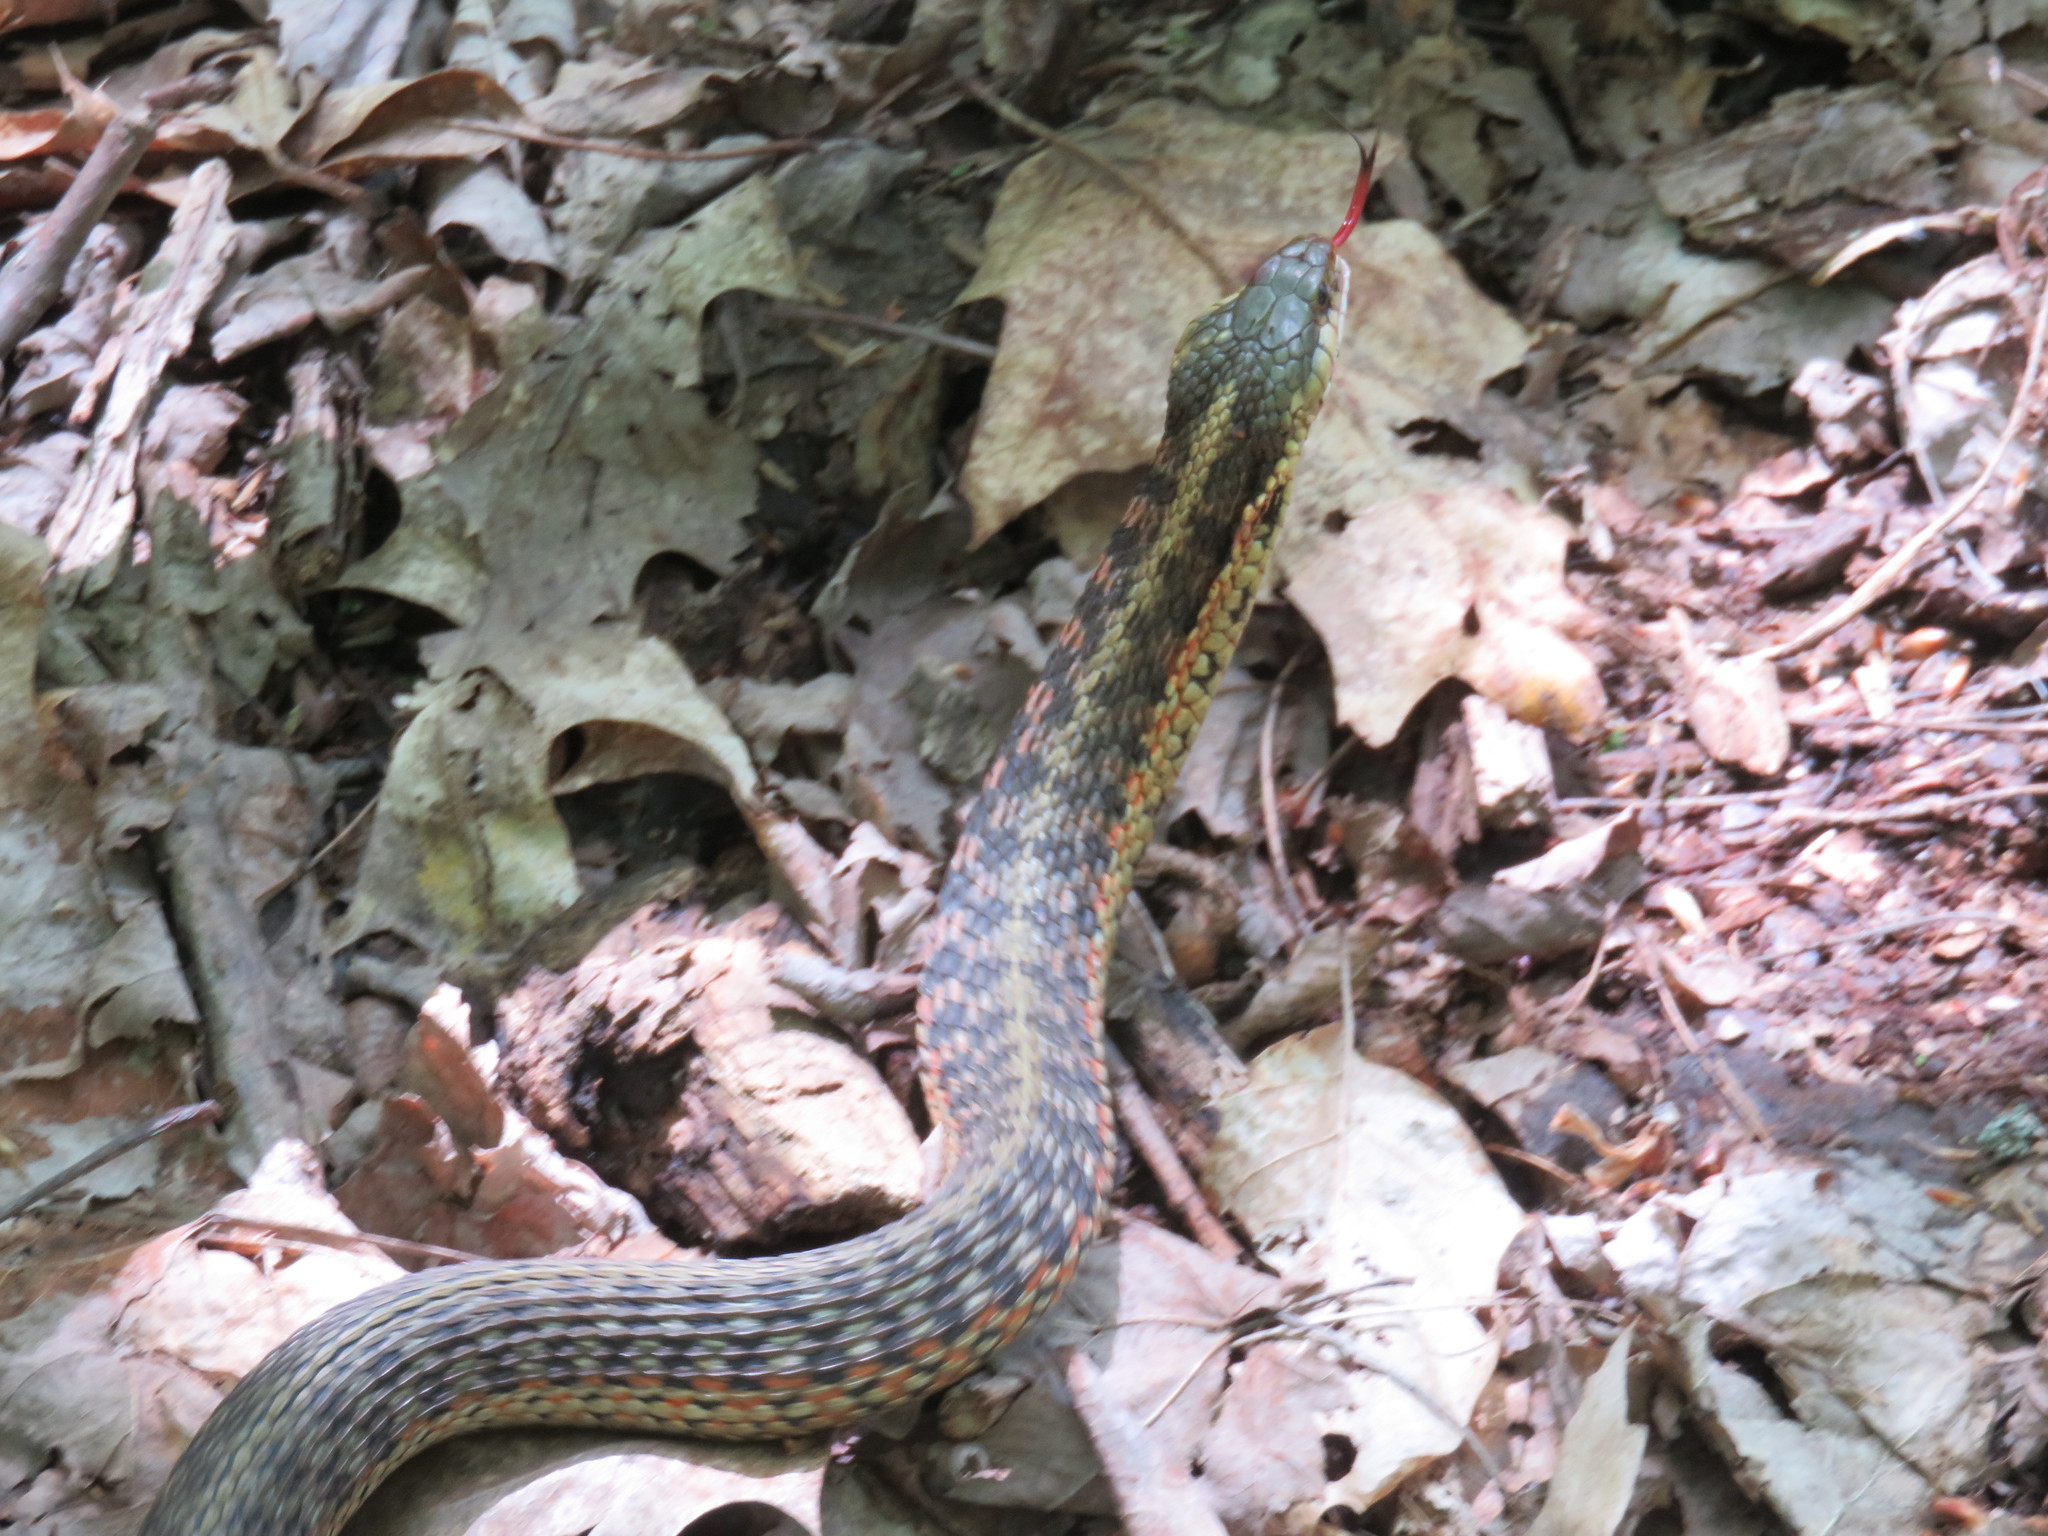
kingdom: Animalia
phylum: Chordata
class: Squamata
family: Colubridae
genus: Thamnophis
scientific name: Thamnophis sirtalis
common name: Common garter snake
